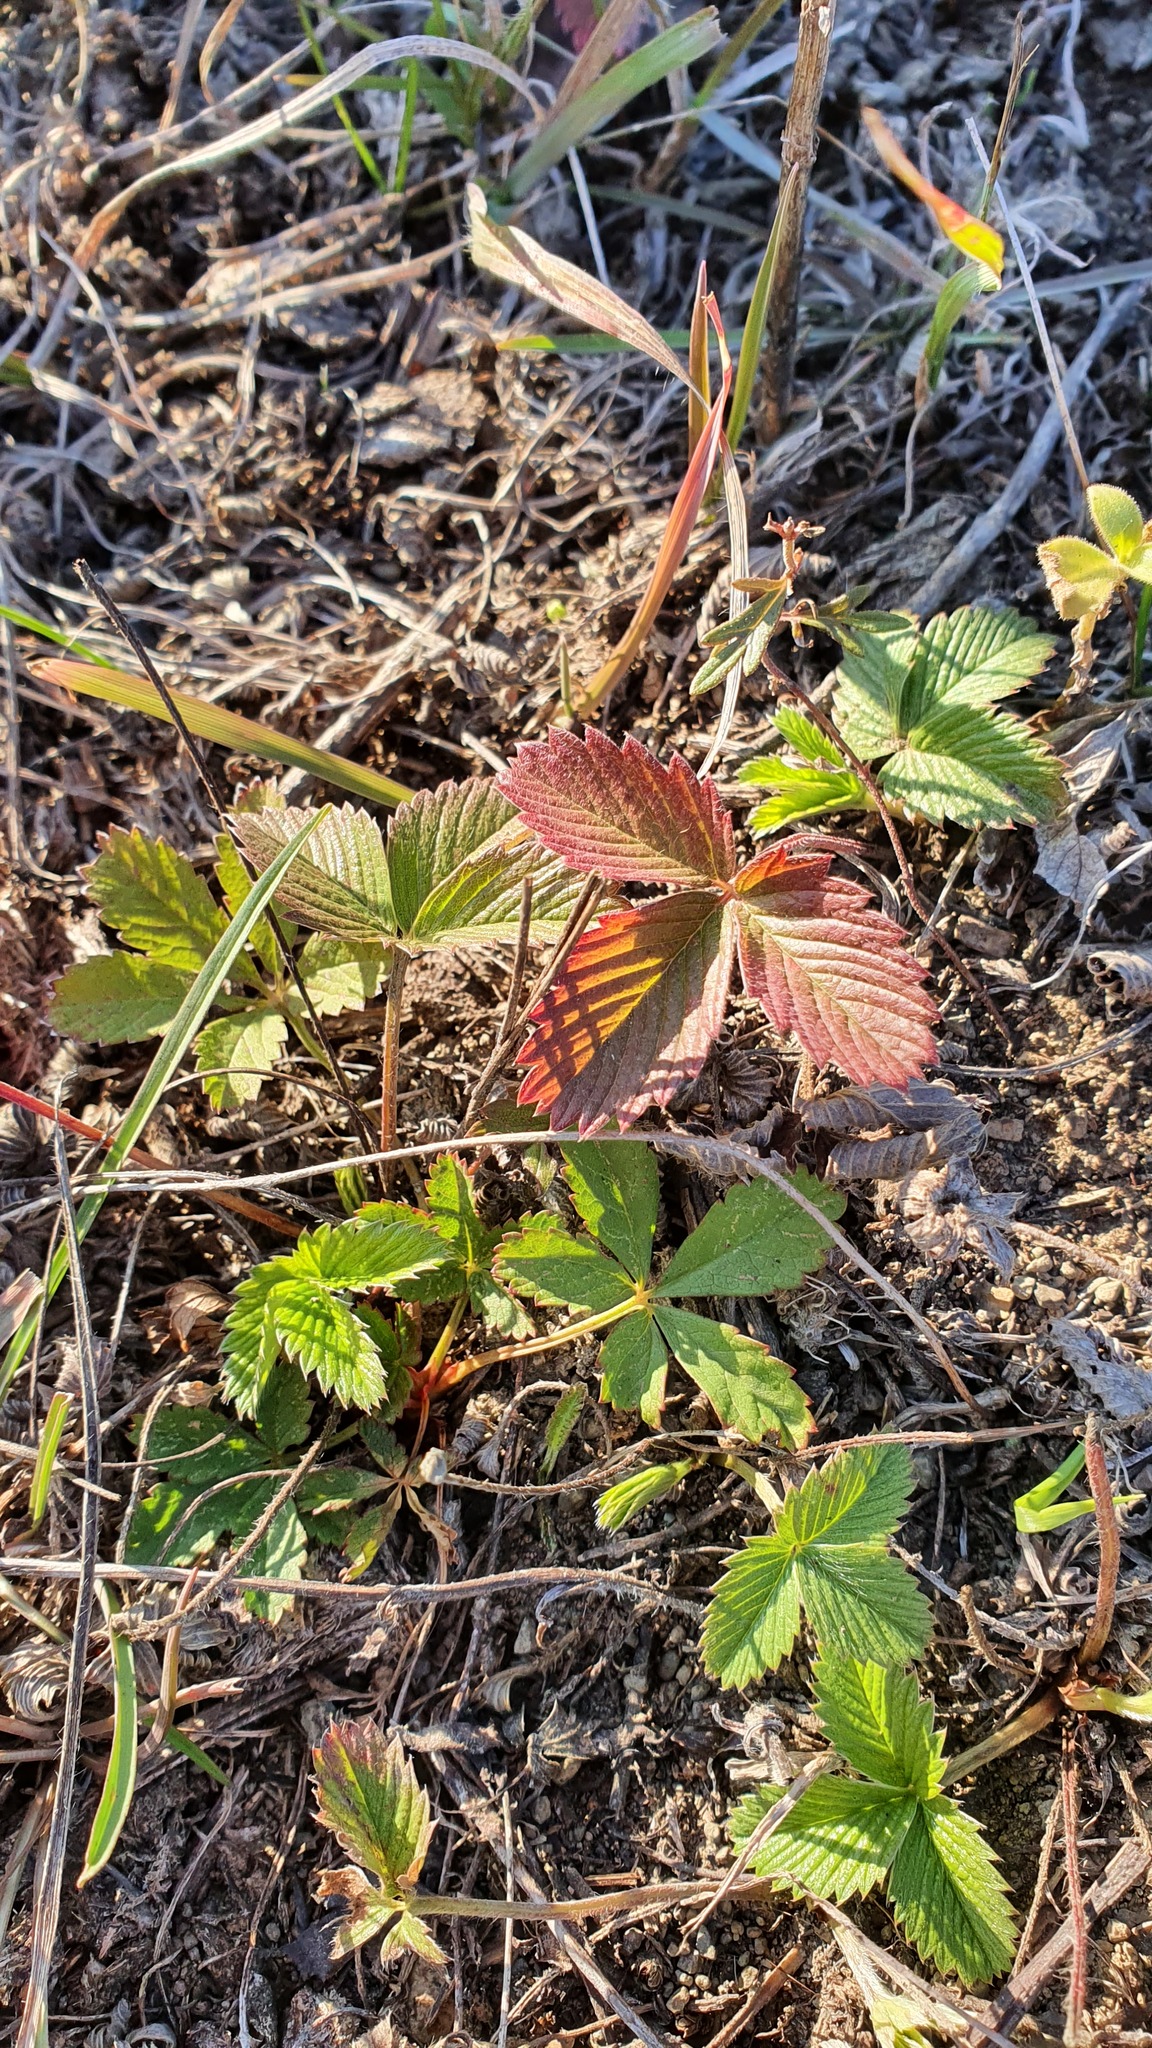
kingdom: Plantae
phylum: Tracheophyta
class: Magnoliopsida
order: Rosales
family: Rosaceae
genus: Fragaria
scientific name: Fragaria vesca
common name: Wild strawberry
